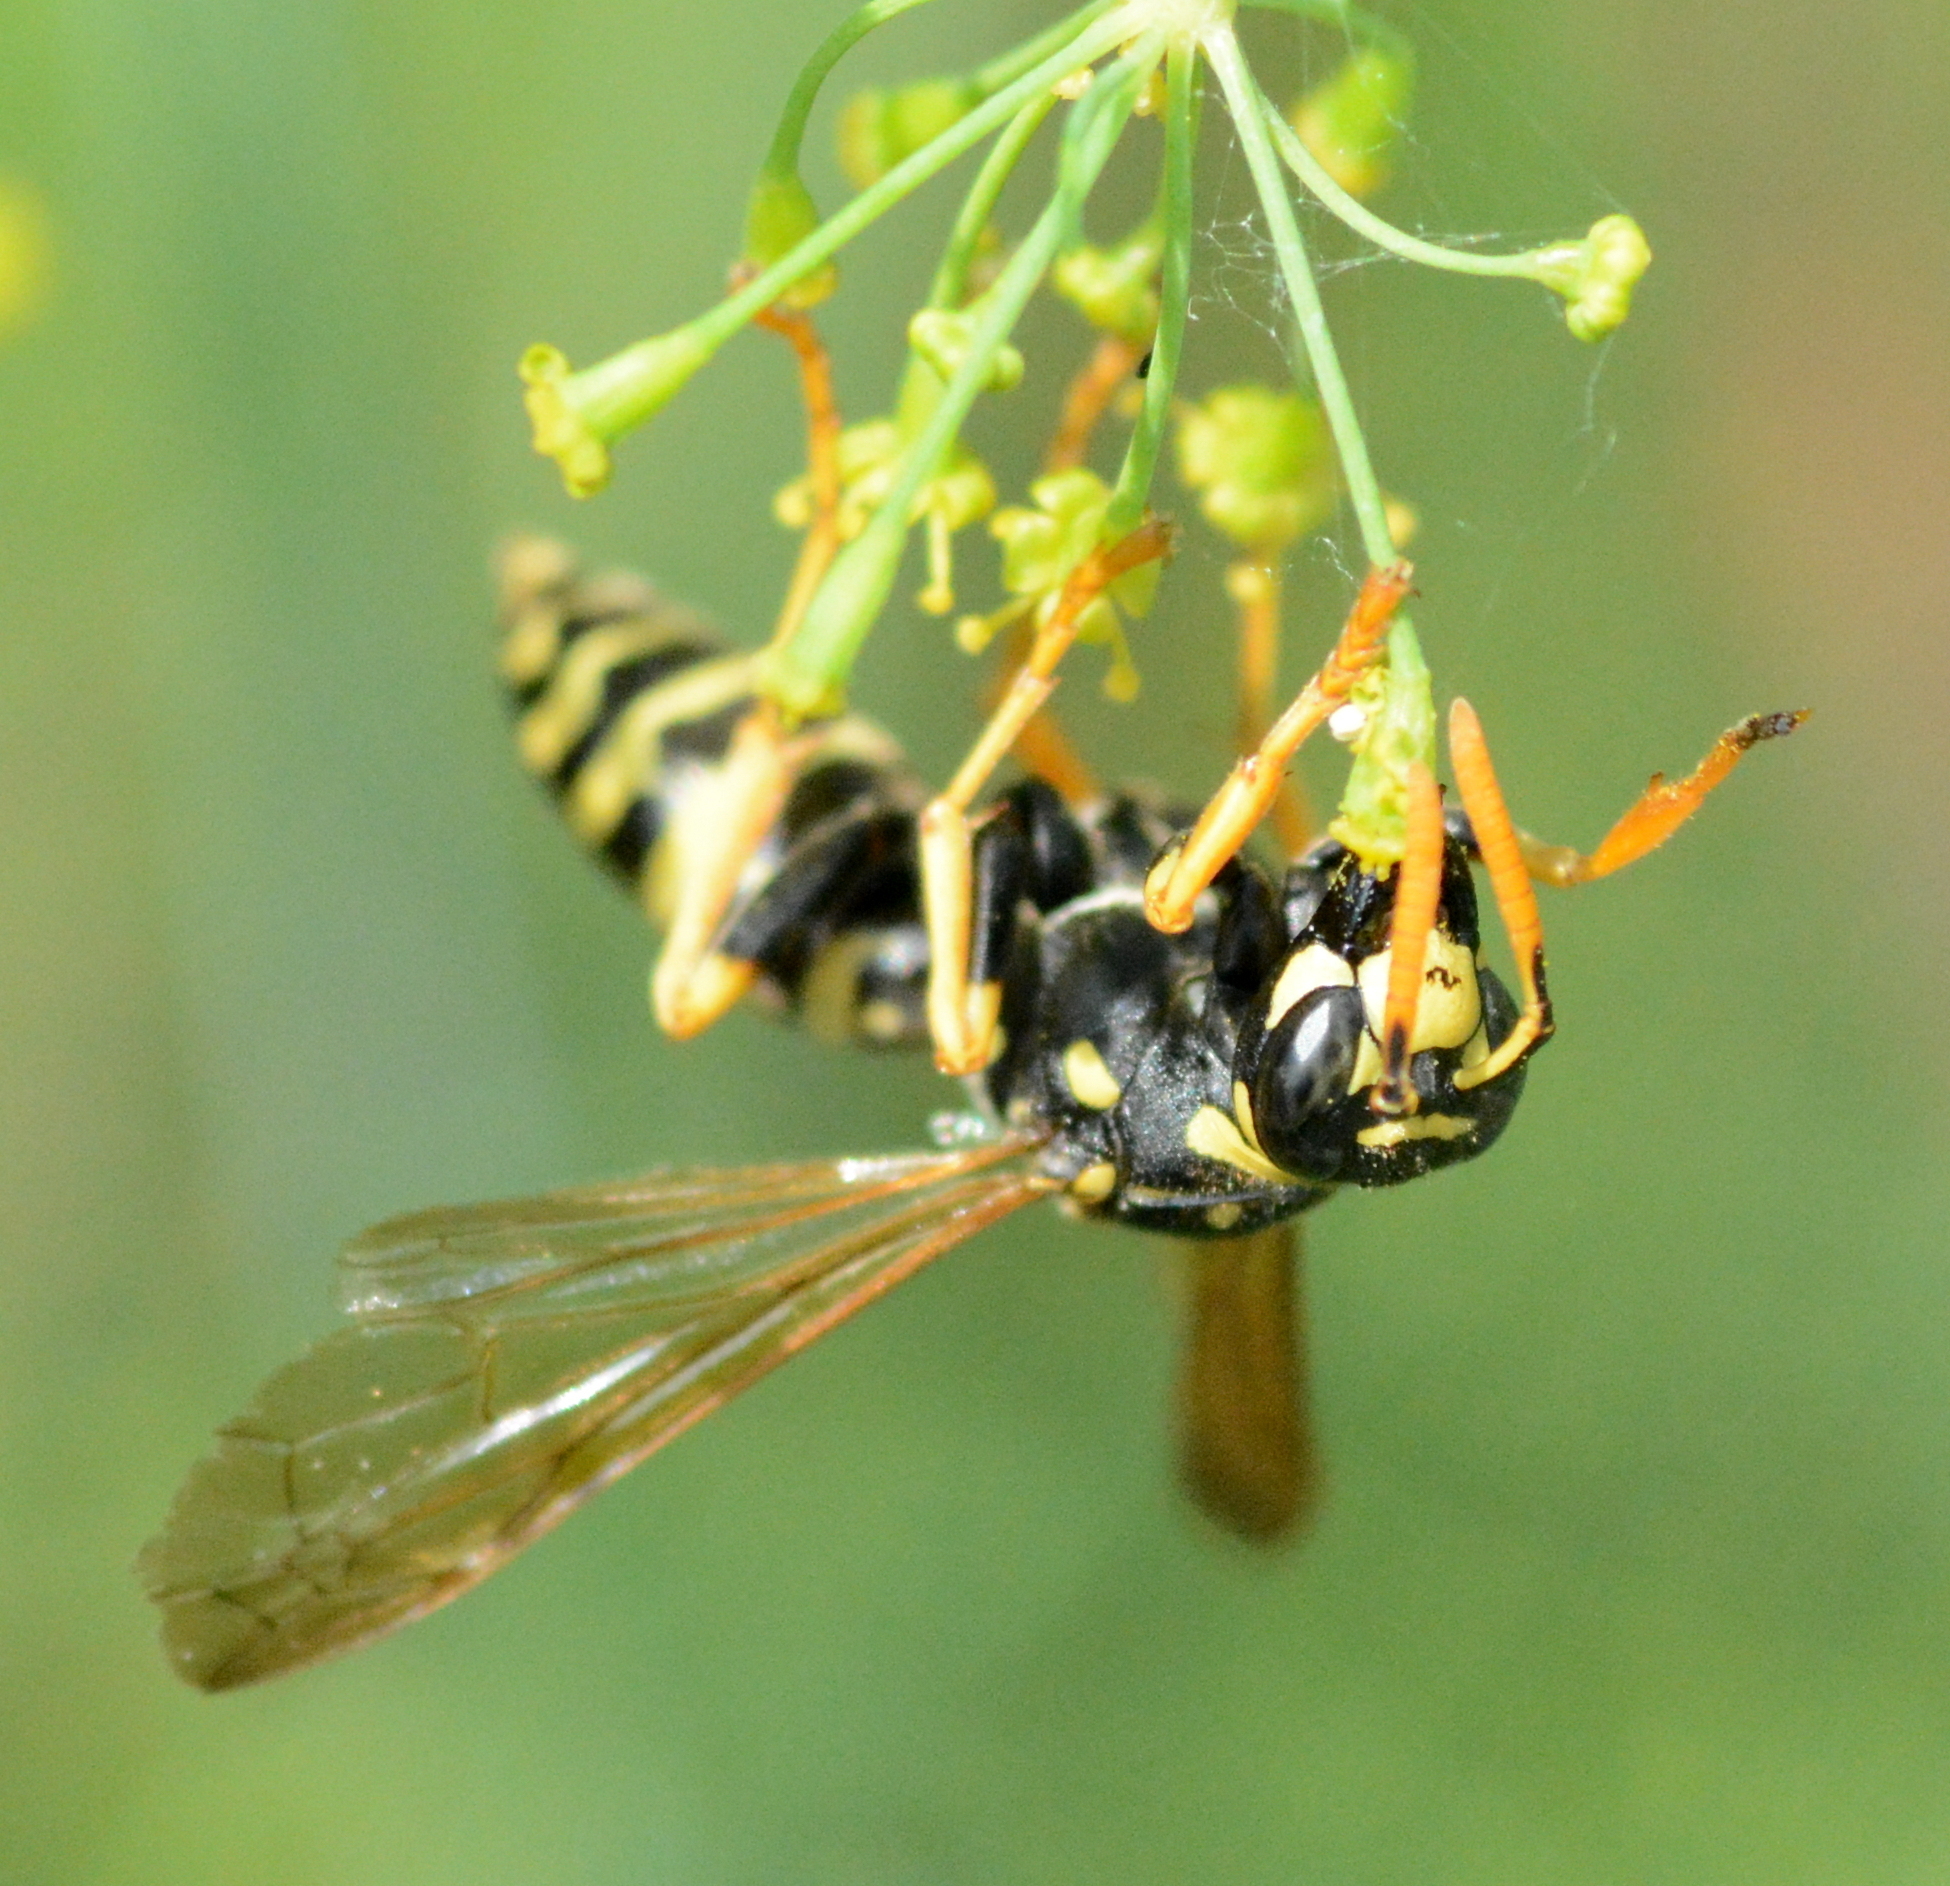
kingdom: Animalia
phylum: Arthropoda
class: Insecta
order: Hymenoptera
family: Eumenidae
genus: Polistes
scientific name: Polistes dominula
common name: Paper wasp
